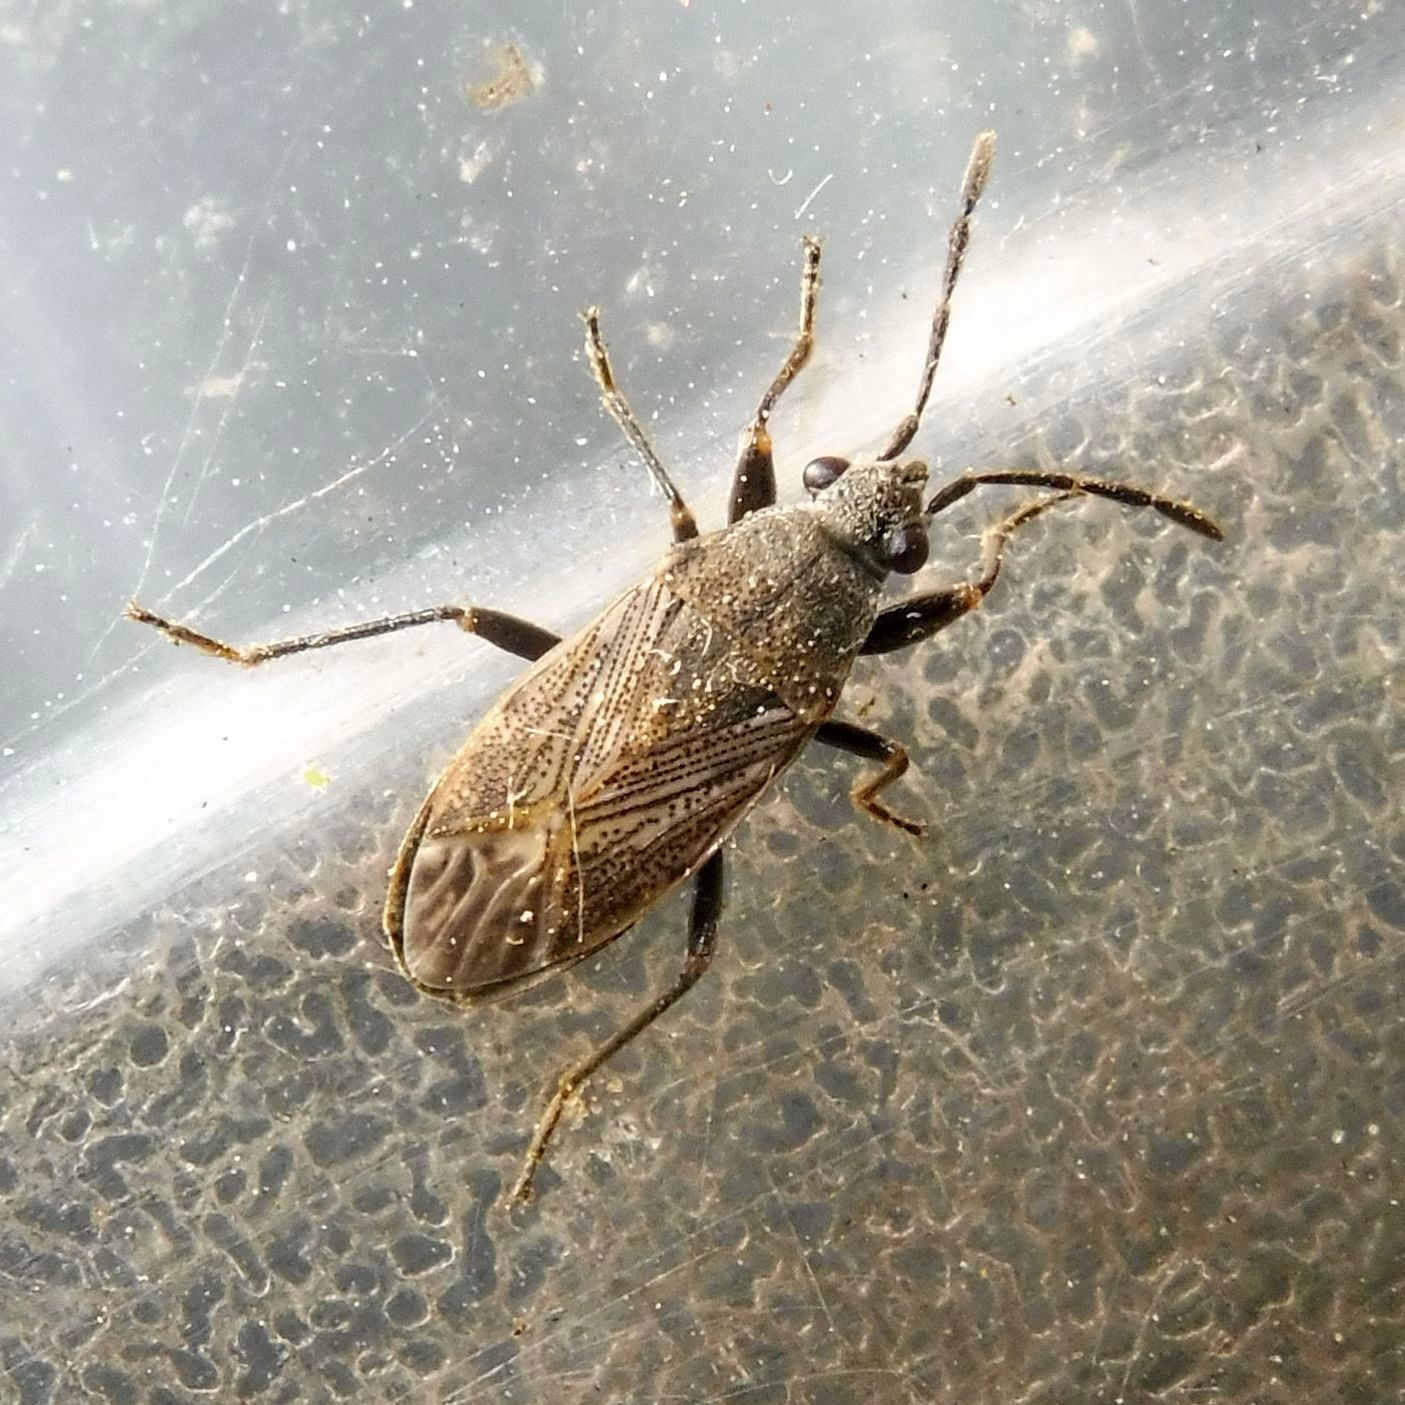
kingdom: Animalia
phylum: Arthropoda
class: Insecta
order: Hemiptera
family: Rhyparochromidae
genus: Peritrechus
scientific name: Peritrechus geniculatus
